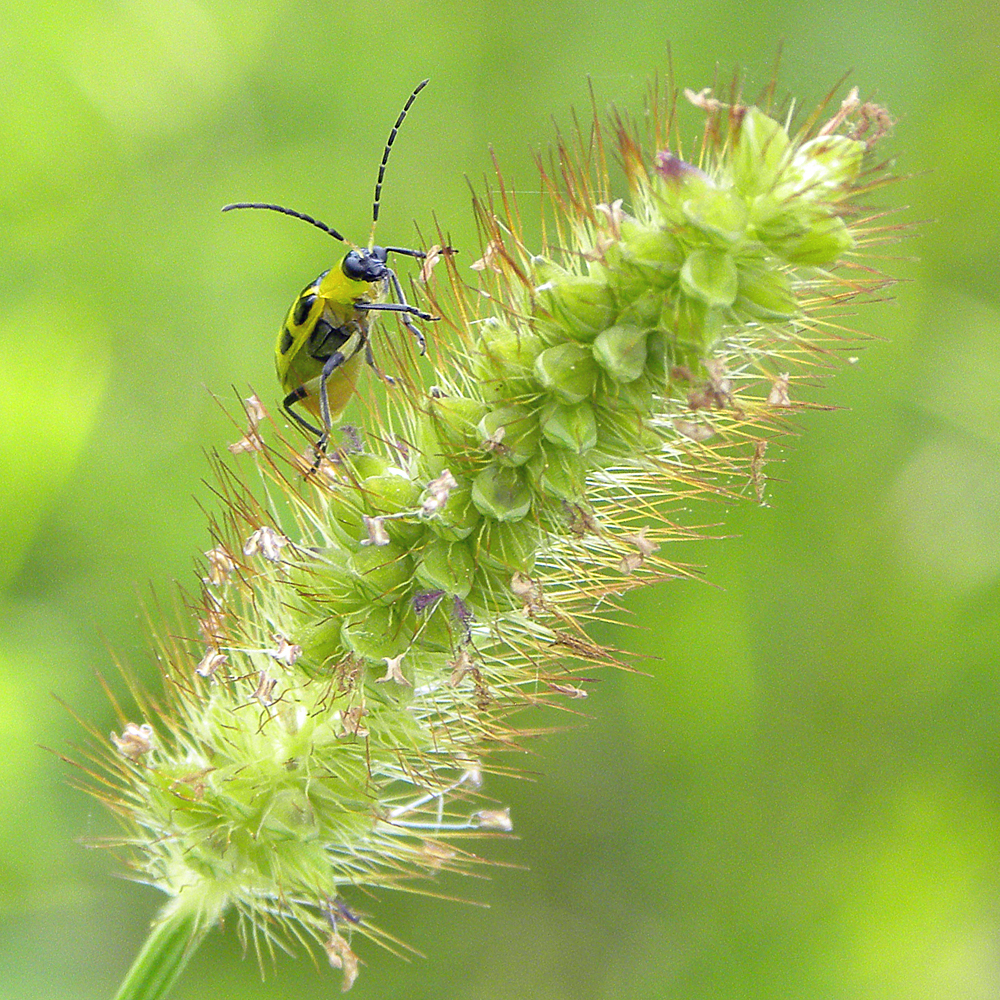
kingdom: Plantae
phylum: Tracheophyta
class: Liliopsida
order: Poales
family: Poaceae
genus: Setaria
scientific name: Setaria pumila
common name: Yellow bristle-grass
